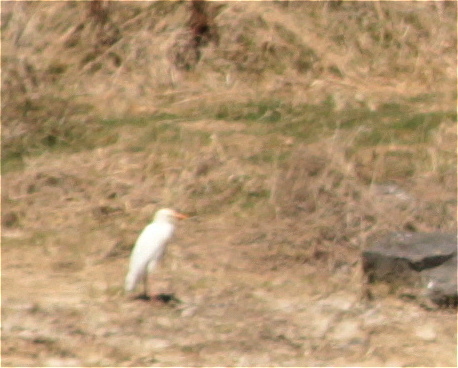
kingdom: Animalia
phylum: Chordata
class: Aves
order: Pelecaniformes
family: Ardeidae
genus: Bubulcus
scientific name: Bubulcus ibis
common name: Cattle egret
